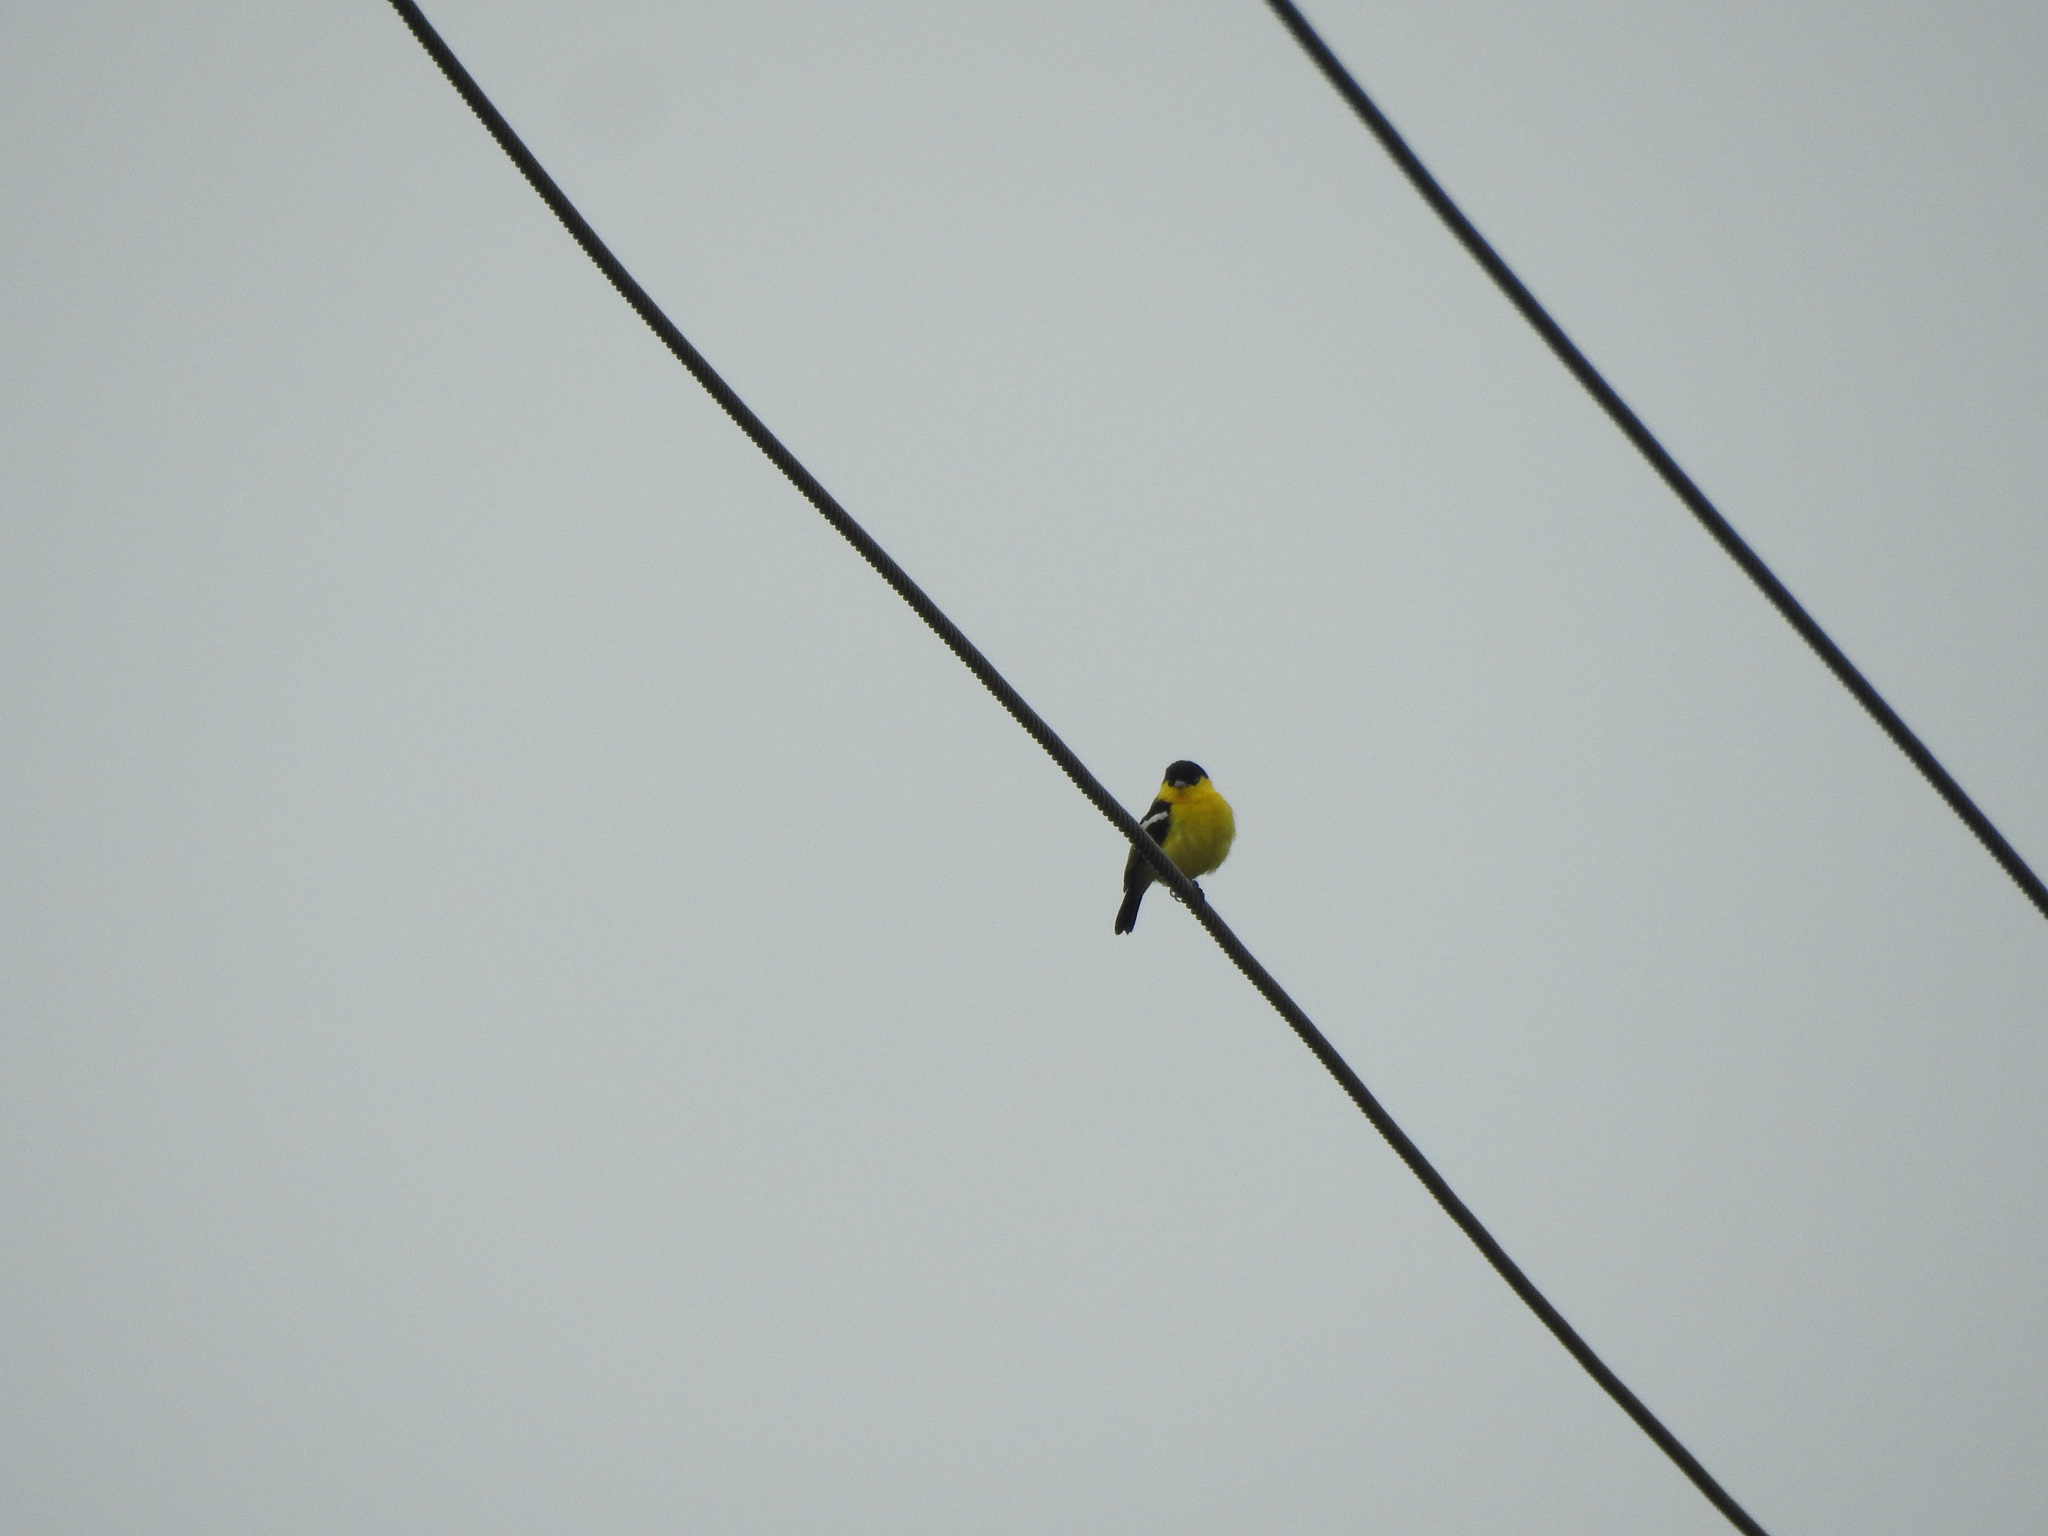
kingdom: Animalia
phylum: Chordata
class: Aves
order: Passeriformes
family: Aegithinidae
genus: Aegithina
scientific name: Aegithina tiphia
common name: Common iora
